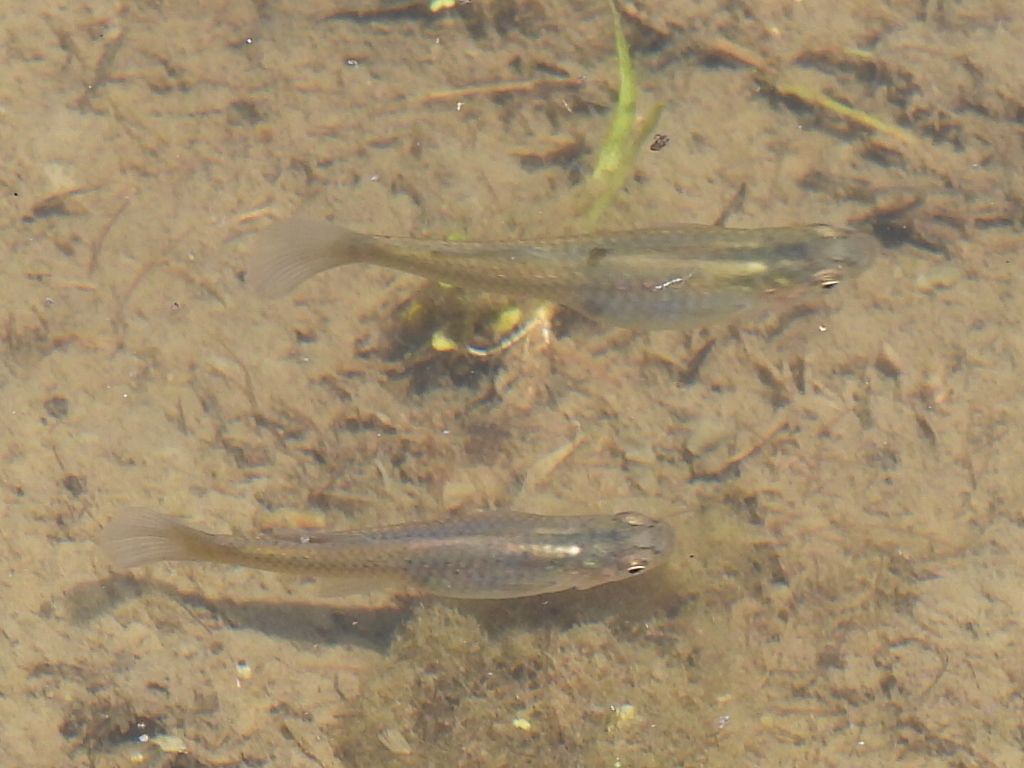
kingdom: Animalia
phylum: Chordata
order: Cyprinodontiformes
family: Poeciliidae
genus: Gambusia
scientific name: Gambusia affinis
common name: Mosquitofish
